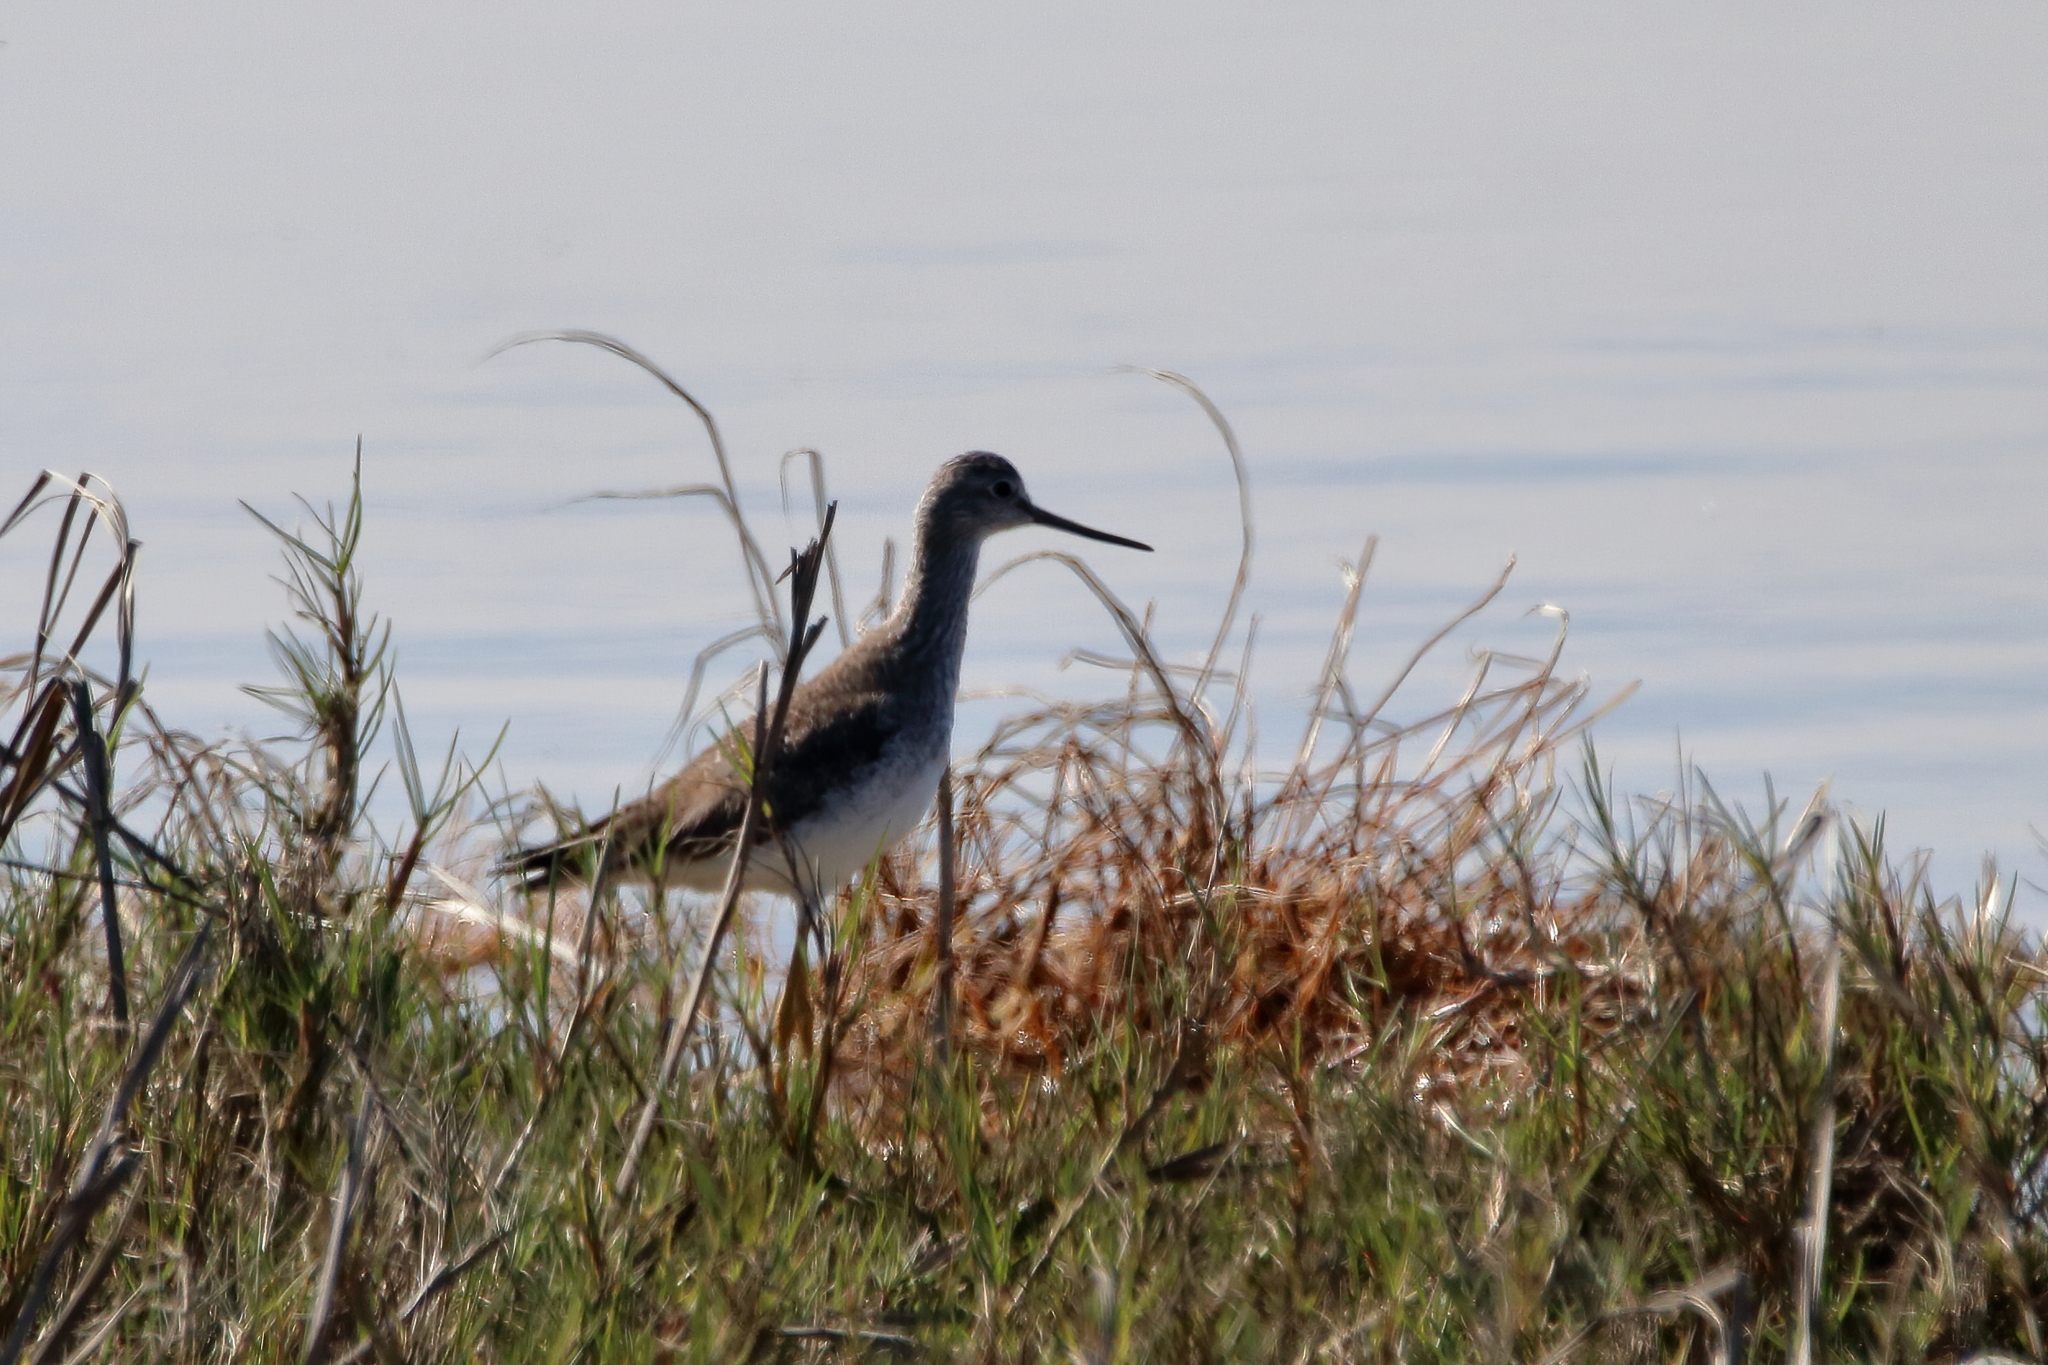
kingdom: Animalia
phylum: Chordata
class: Aves
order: Charadriiformes
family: Scolopacidae
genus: Tringa
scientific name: Tringa melanoleuca
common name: Greater yellowlegs
